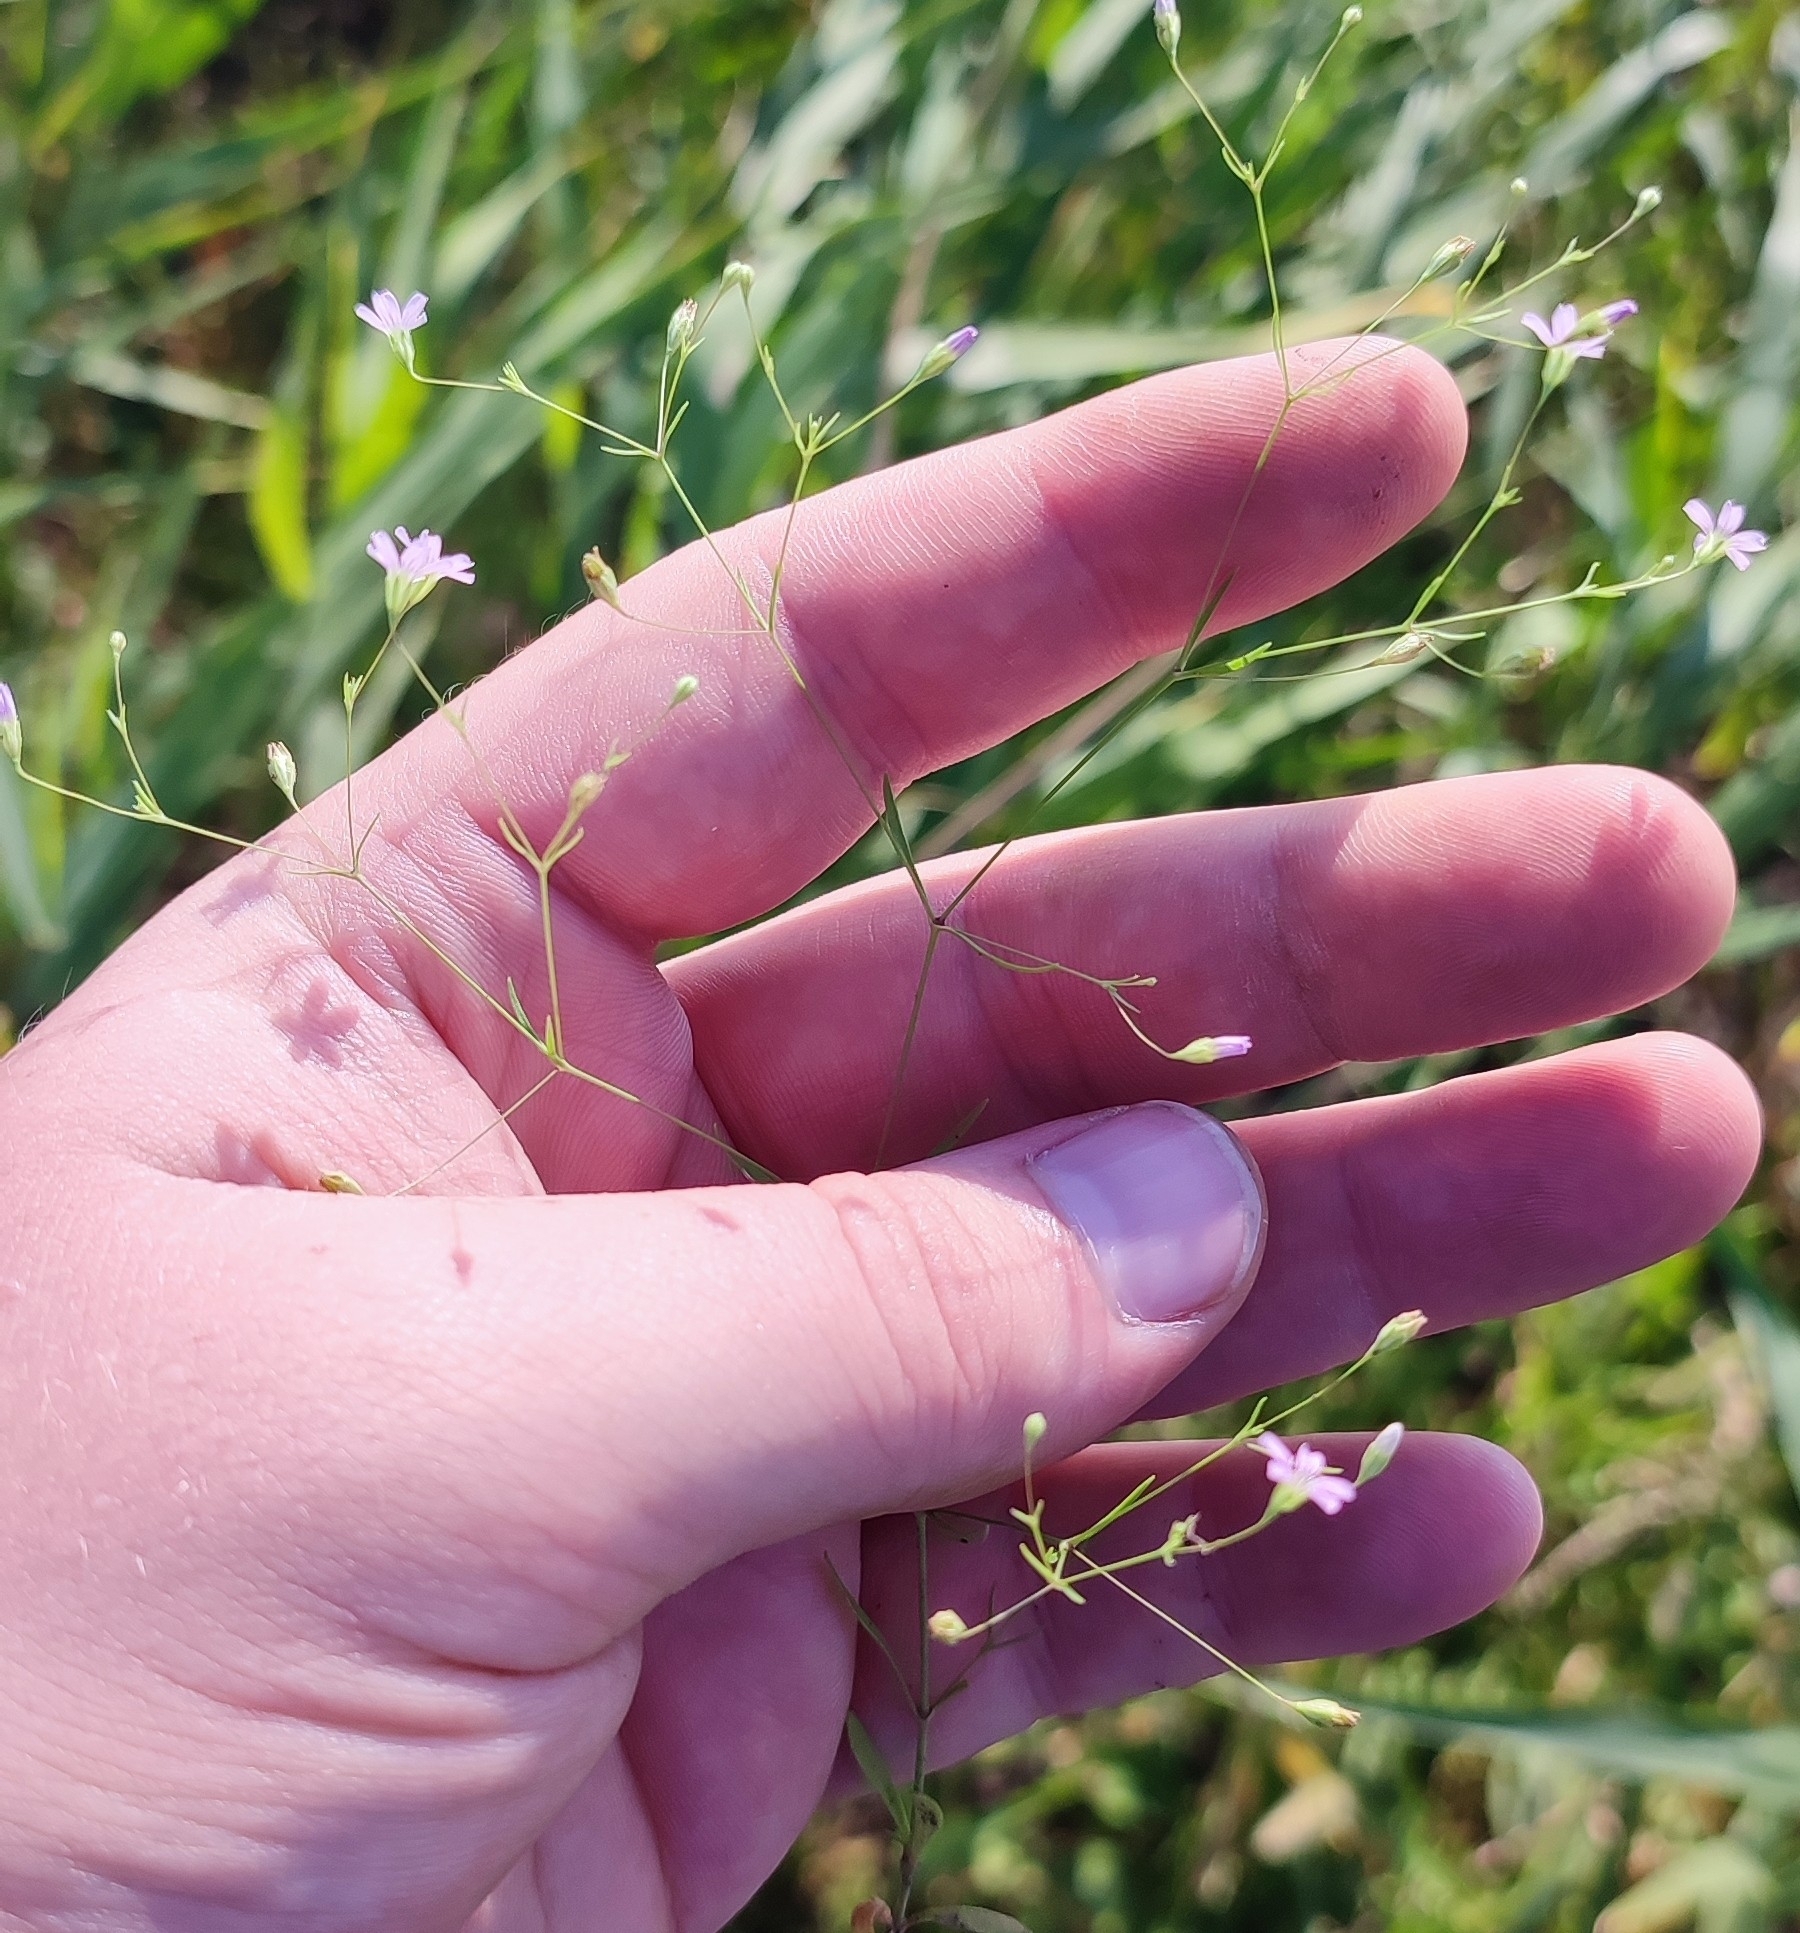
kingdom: Plantae
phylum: Tracheophyta
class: Magnoliopsida
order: Caryophyllales
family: Caryophyllaceae
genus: Psammophiliella
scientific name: Psammophiliella muralis
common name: Cushion baby's-breath
